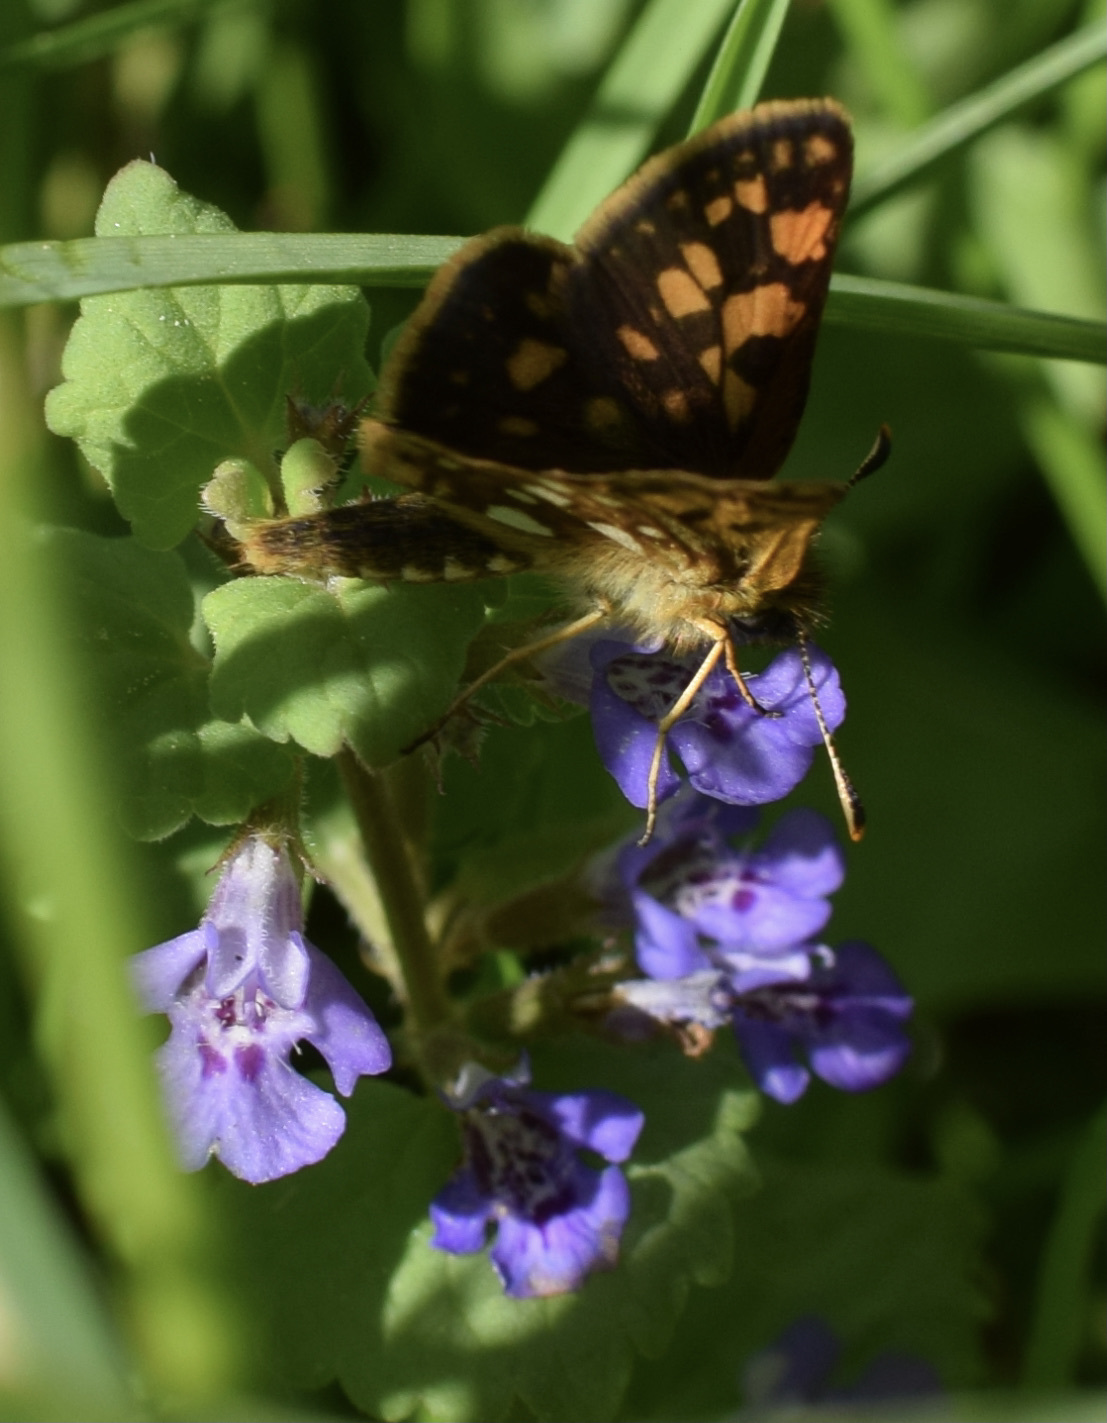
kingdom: Animalia
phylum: Arthropoda
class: Insecta
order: Lepidoptera
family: Hesperiidae
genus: Carterocephalus
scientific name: Carterocephalus mandan
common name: Arctic skipperling
